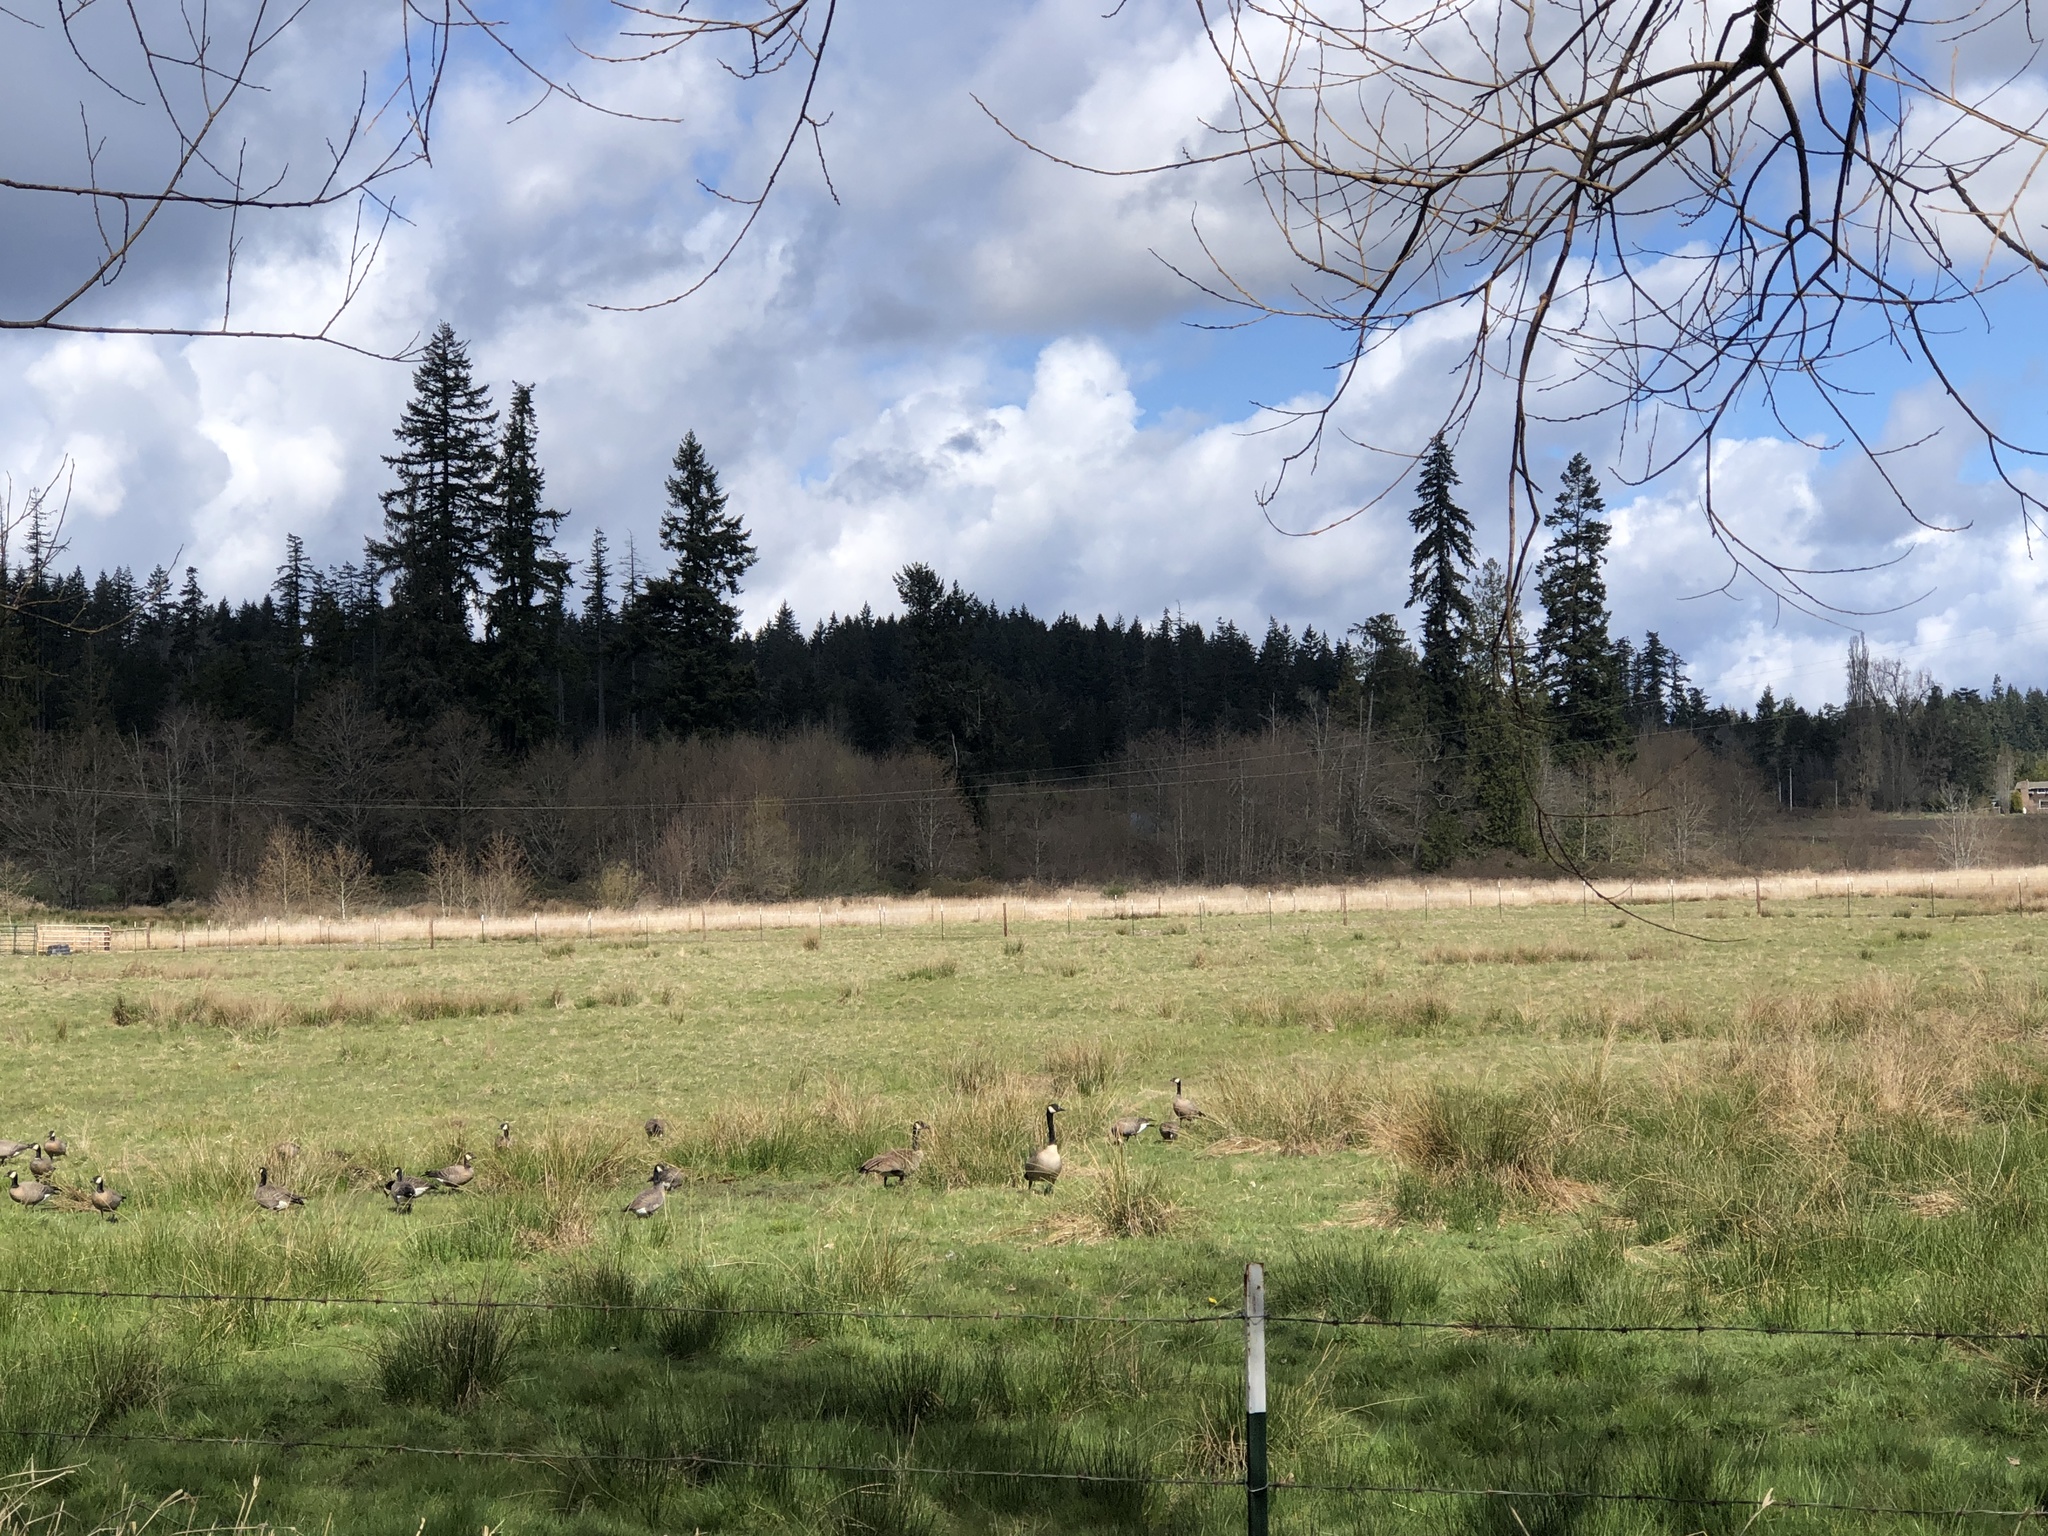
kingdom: Animalia
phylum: Chordata
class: Aves
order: Anseriformes
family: Anatidae
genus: Branta
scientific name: Branta canadensis
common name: Canada goose
